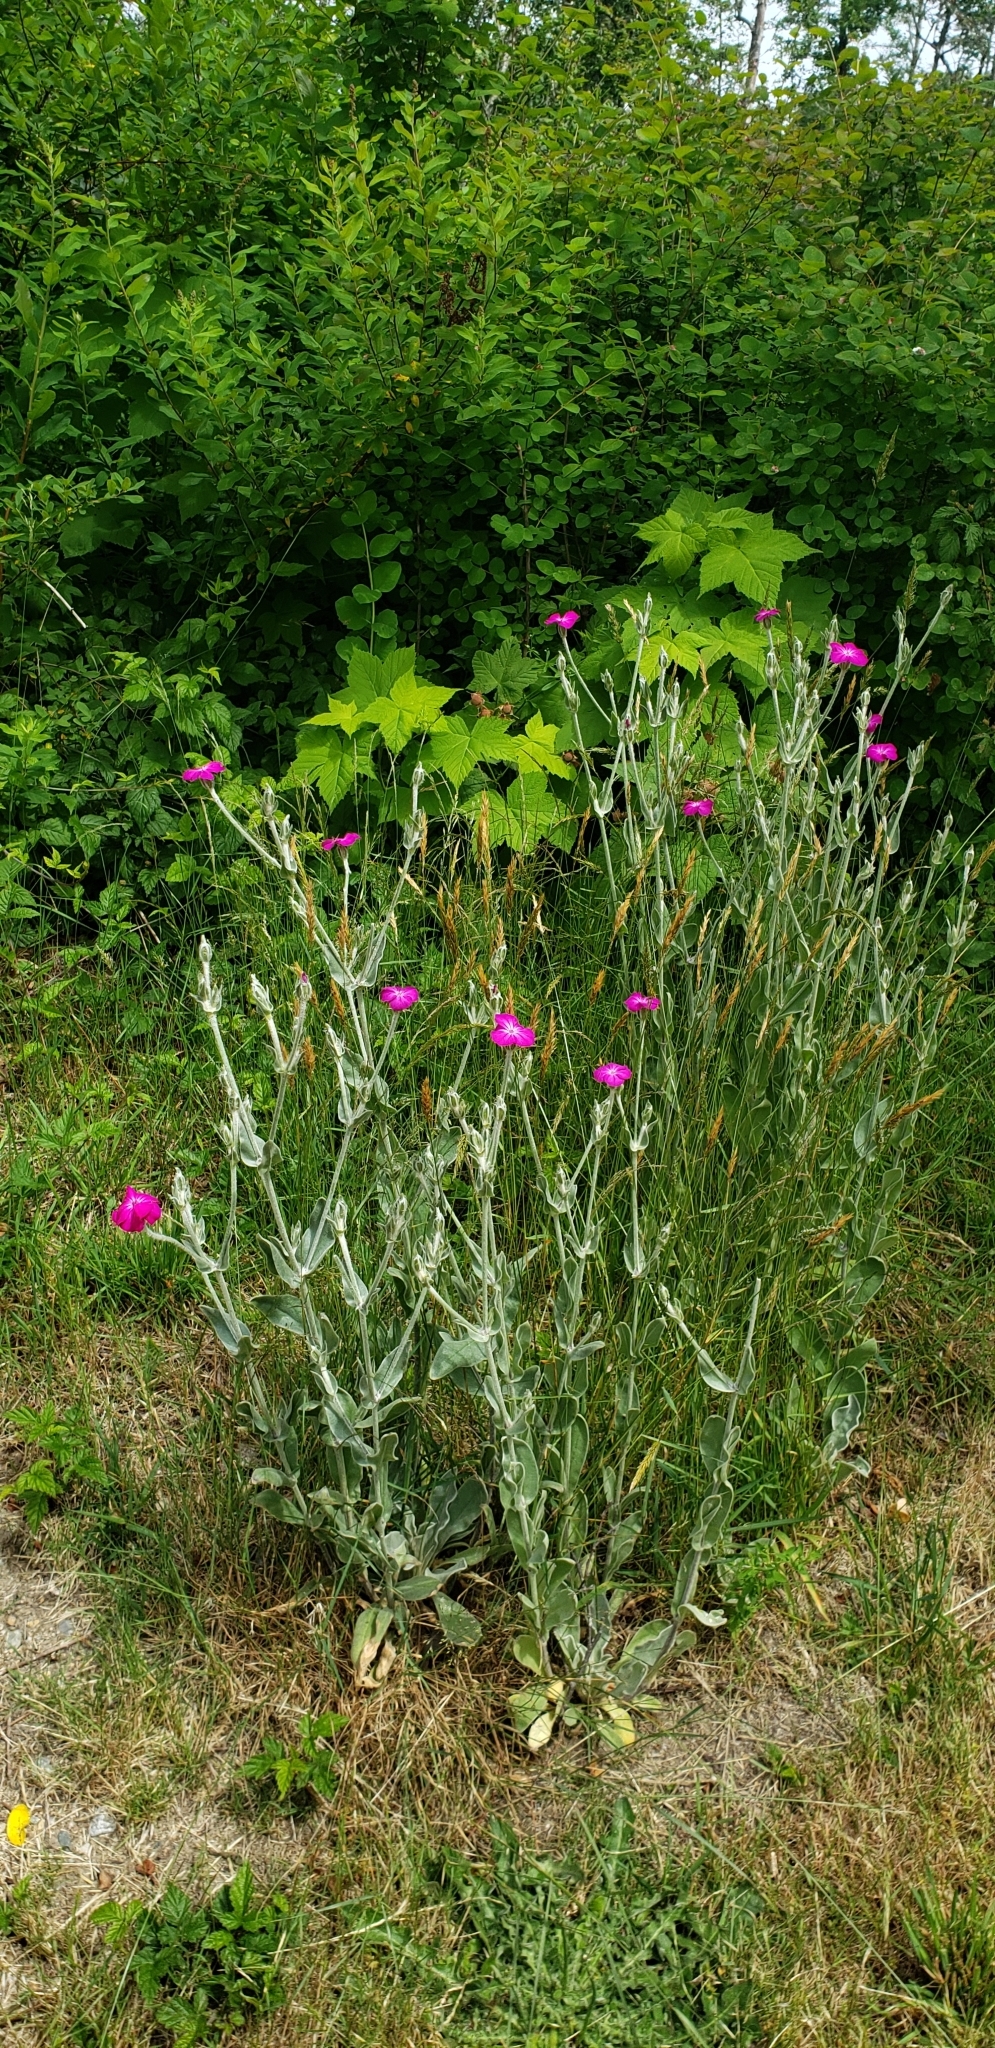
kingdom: Plantae
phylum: Tracheophyta
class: Magnoliopsida
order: Caryophyllales
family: Caryophyllaceae
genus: Silene
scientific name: Silene coronaria
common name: Rose campion
